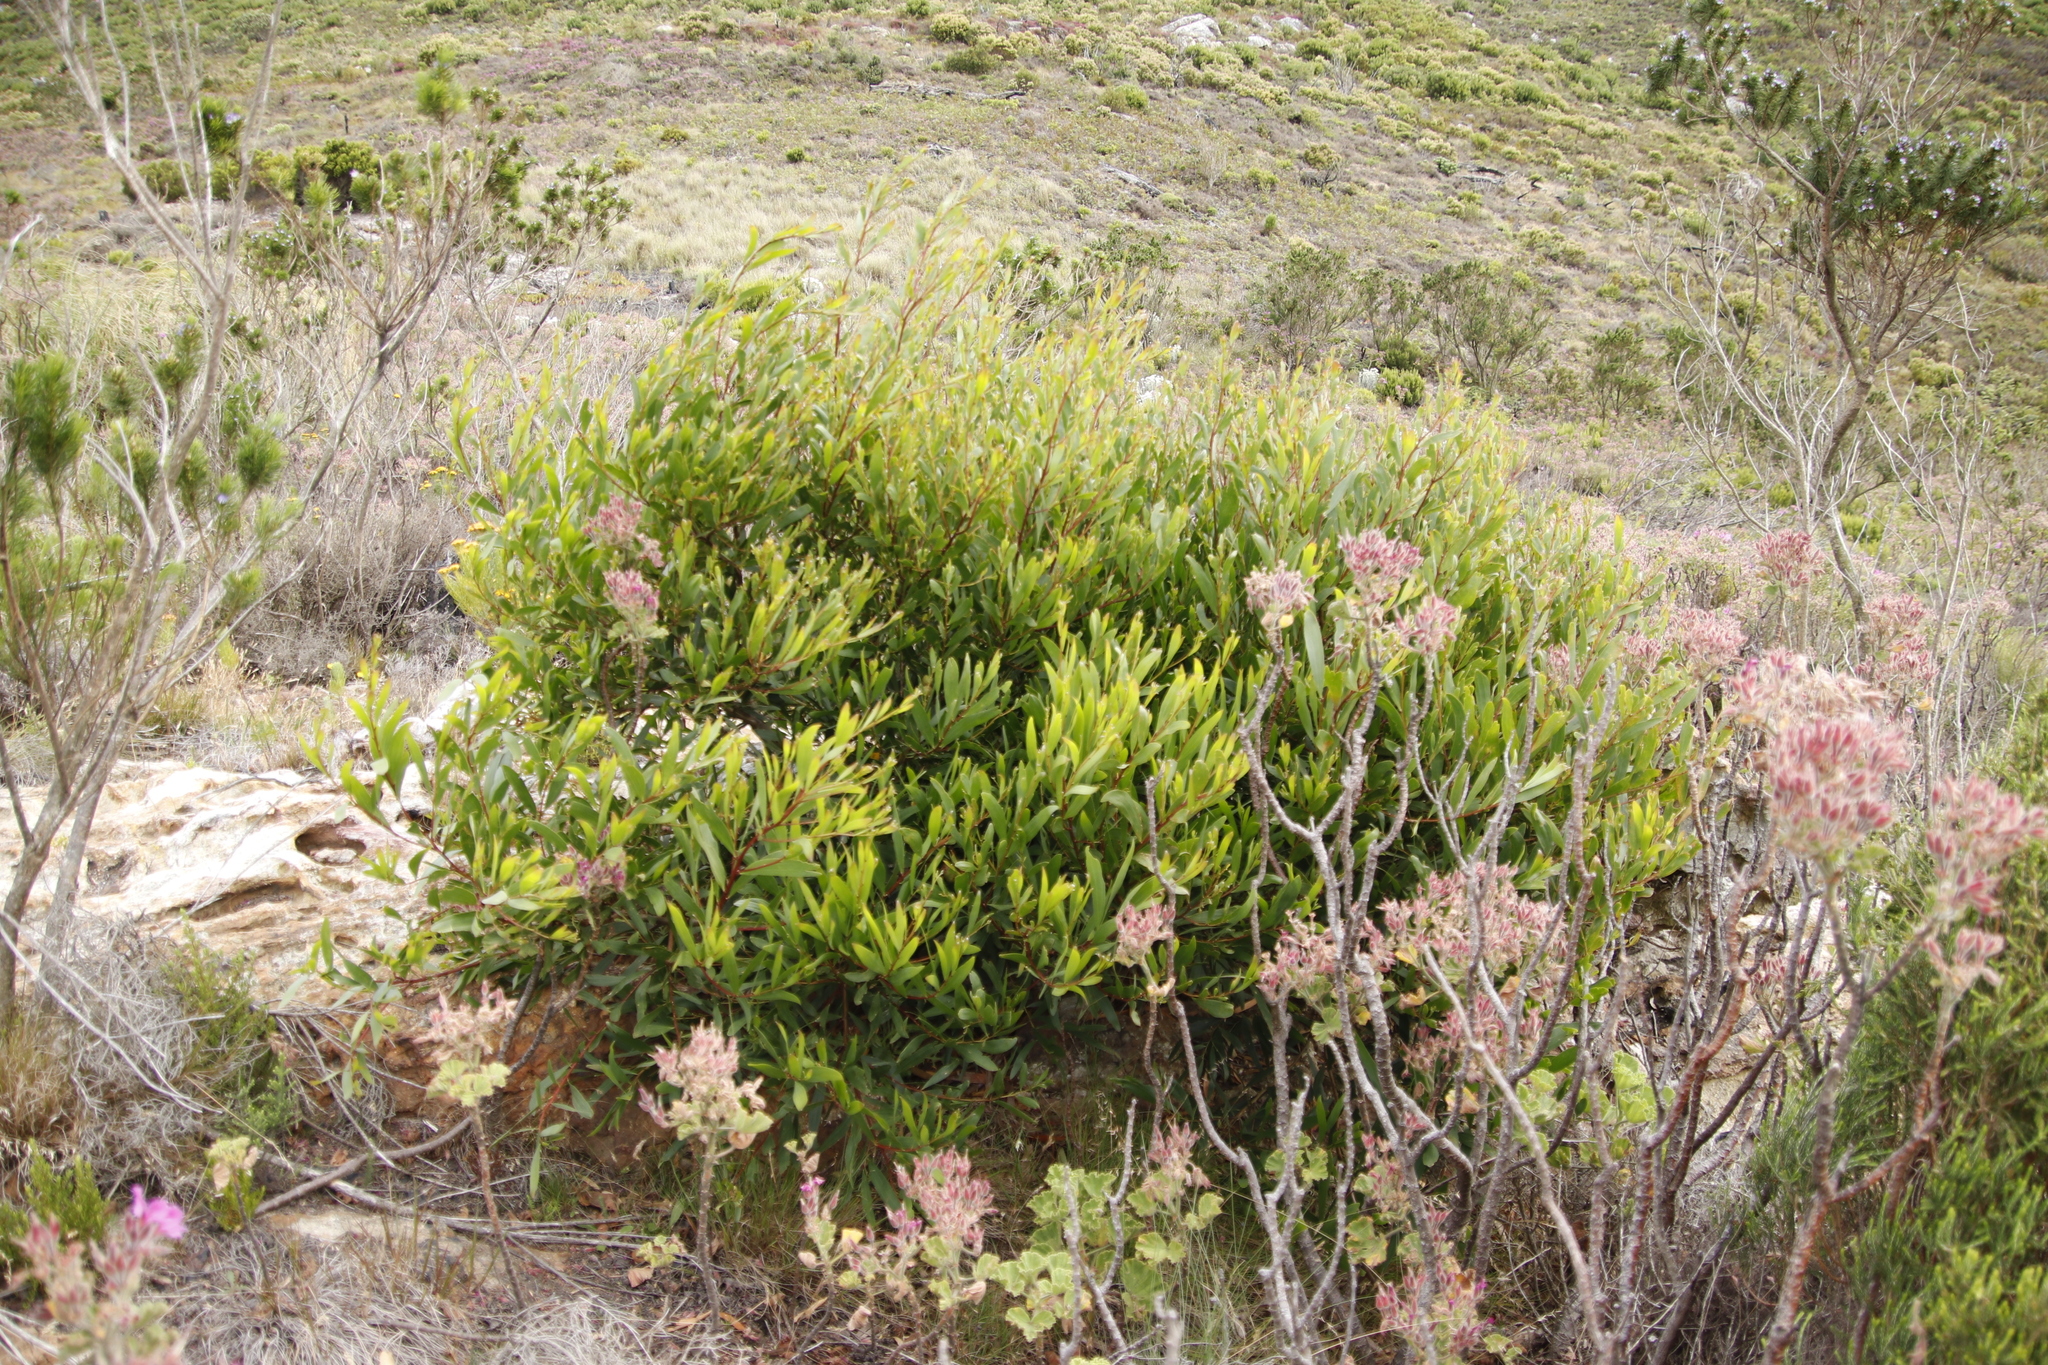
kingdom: Plantae
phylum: Tracheophyta
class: Magnoliopsida
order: Fabales
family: Fabaceae
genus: Acacia
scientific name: Acacia longifolia
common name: Sydney golden wattle
